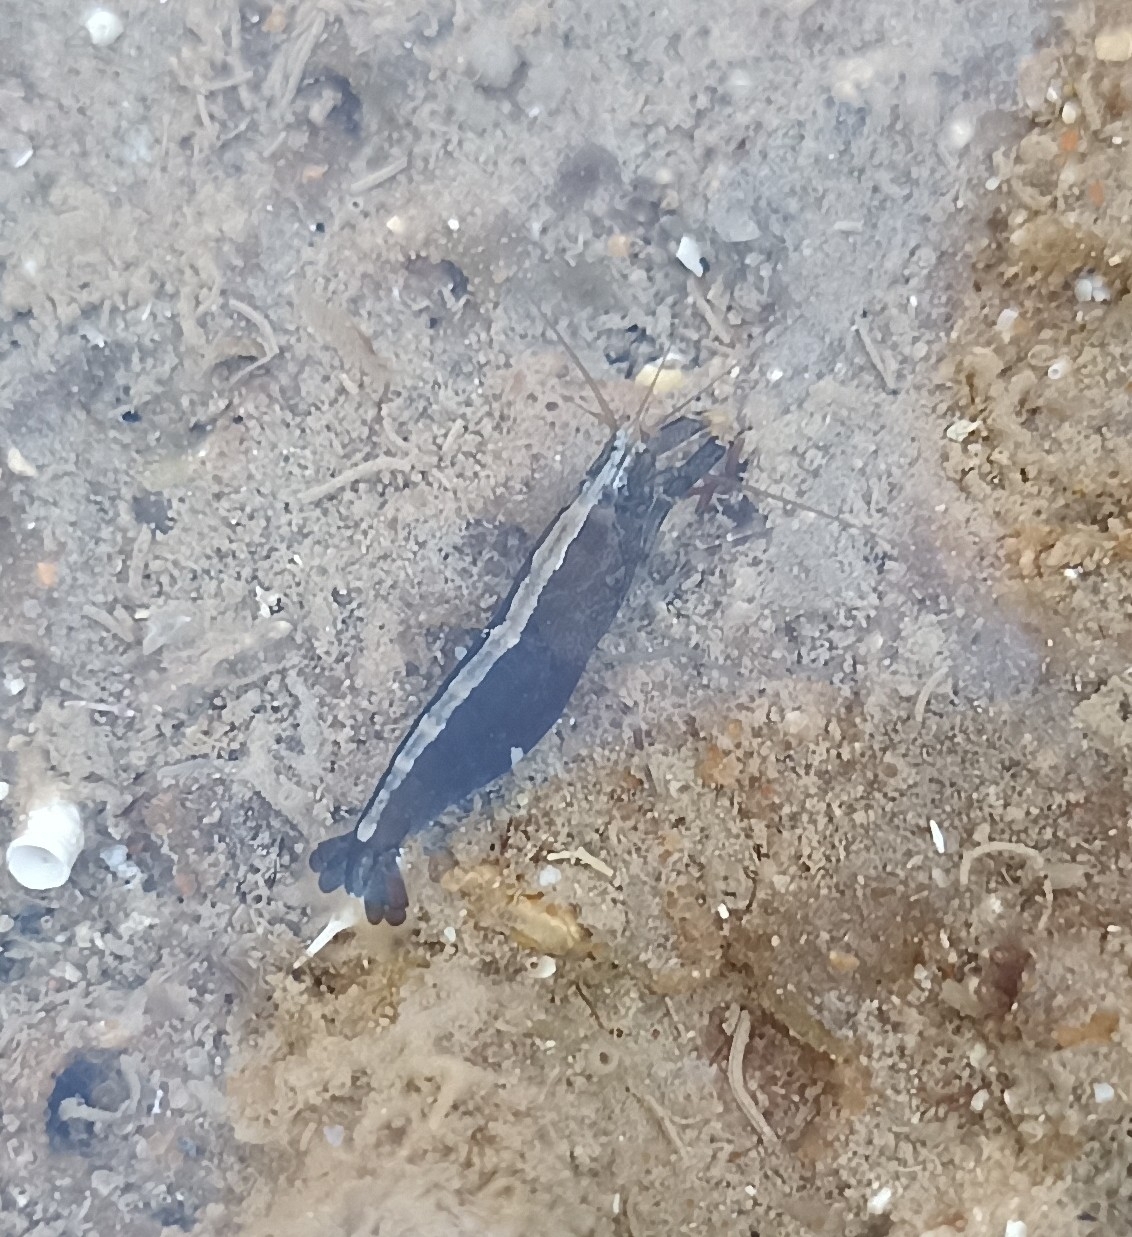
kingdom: Animalia
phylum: Arthropoda
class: Malacostraca
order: Decapoda
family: Alpheidae
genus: Athanas
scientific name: Athanas nitescens
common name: Hooded shrimp
